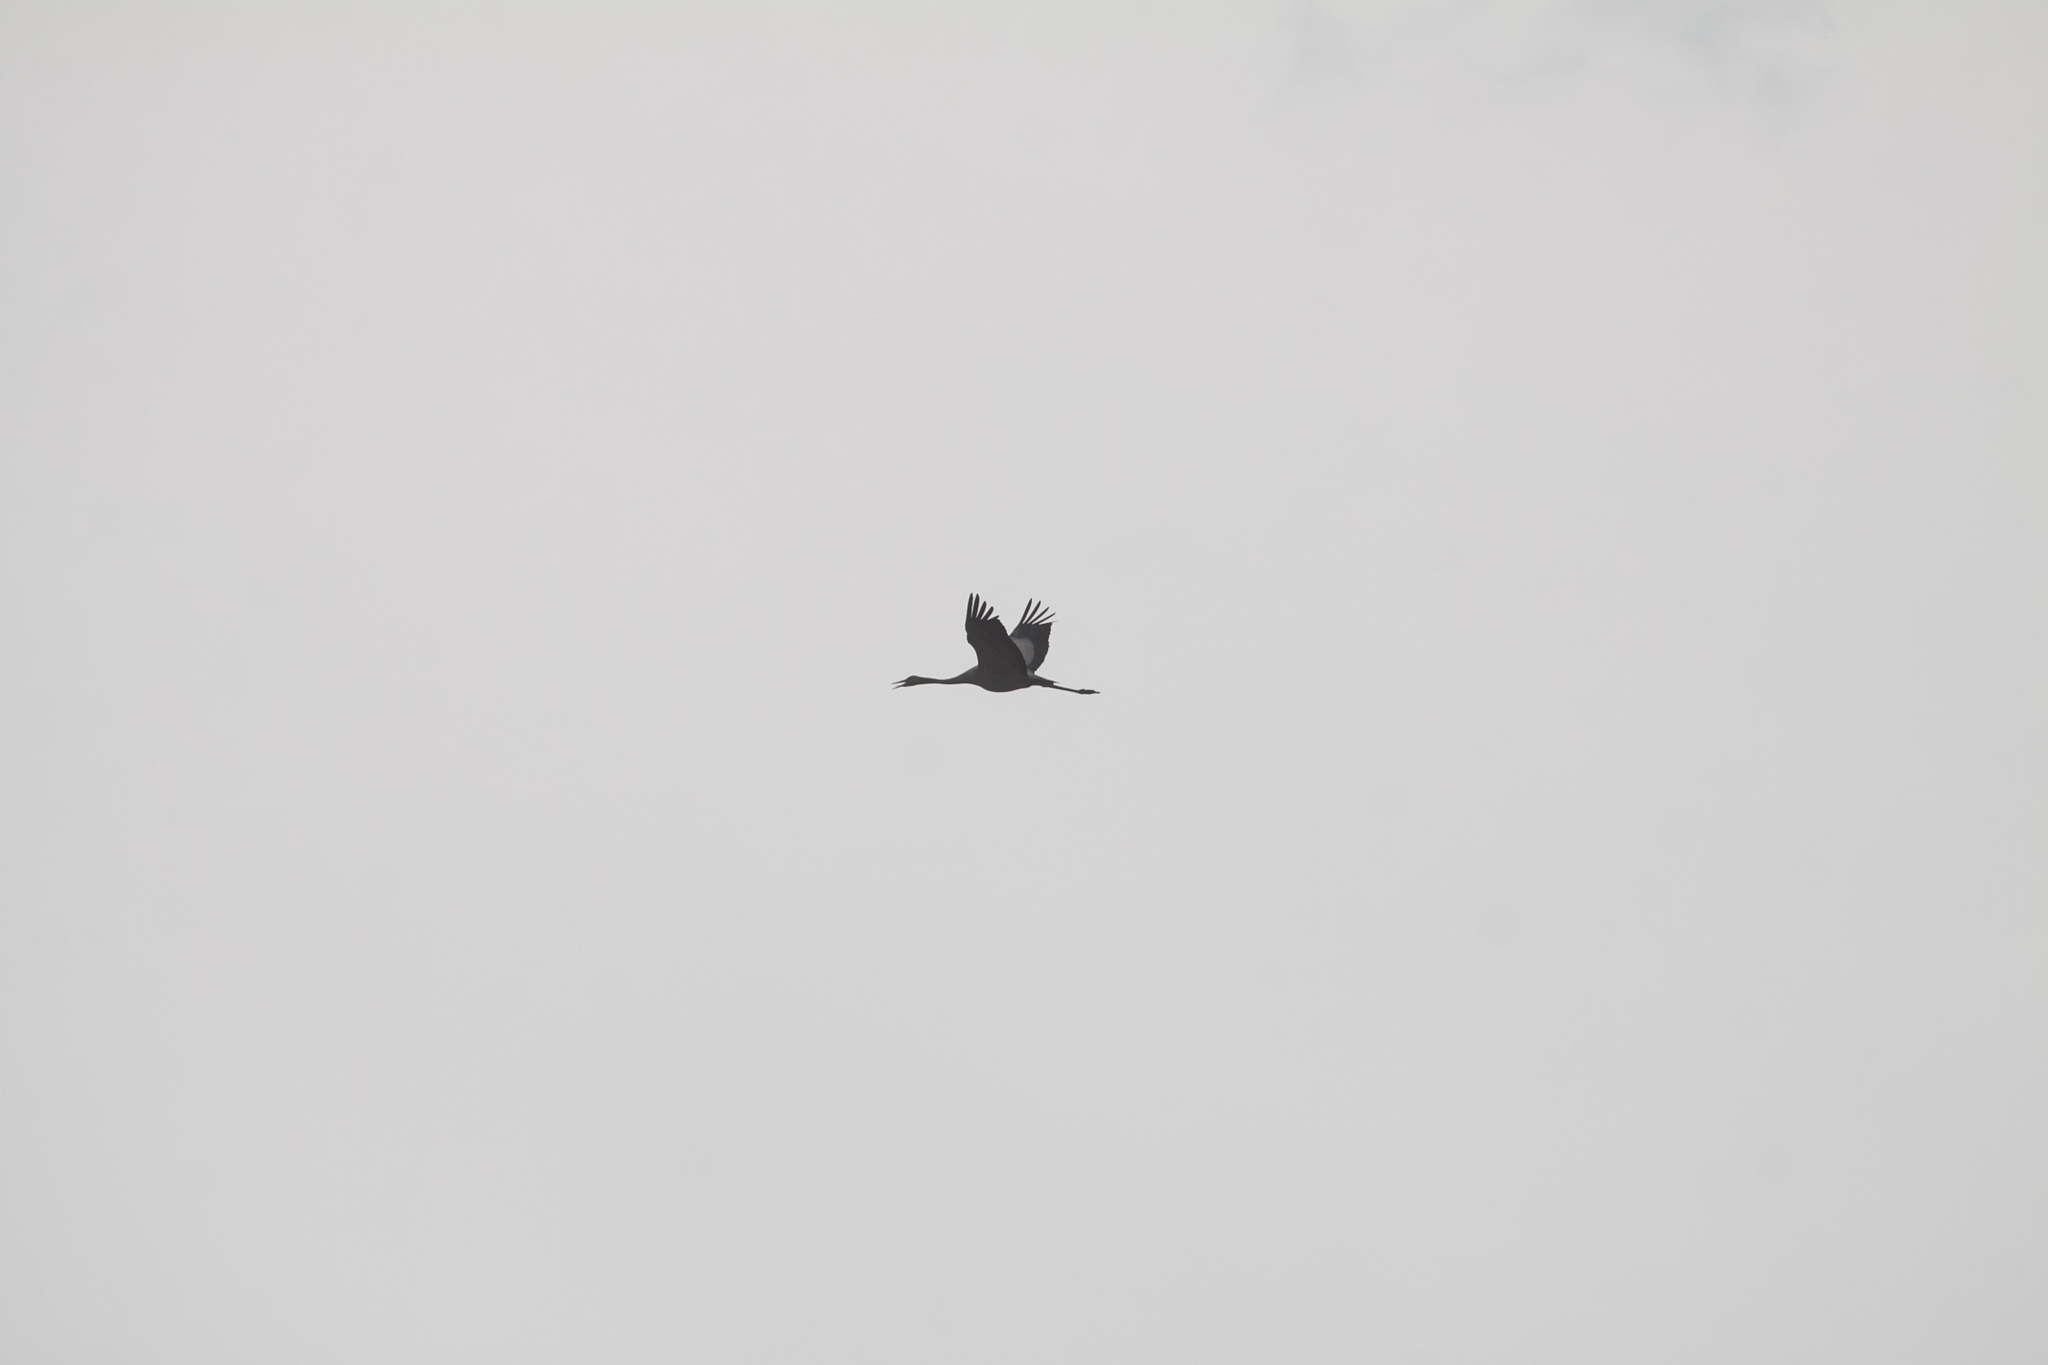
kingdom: Animalia
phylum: Chordata
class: Aves
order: Gruiformes
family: Gruidae
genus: Grus
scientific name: Grus grus
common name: Common crane
